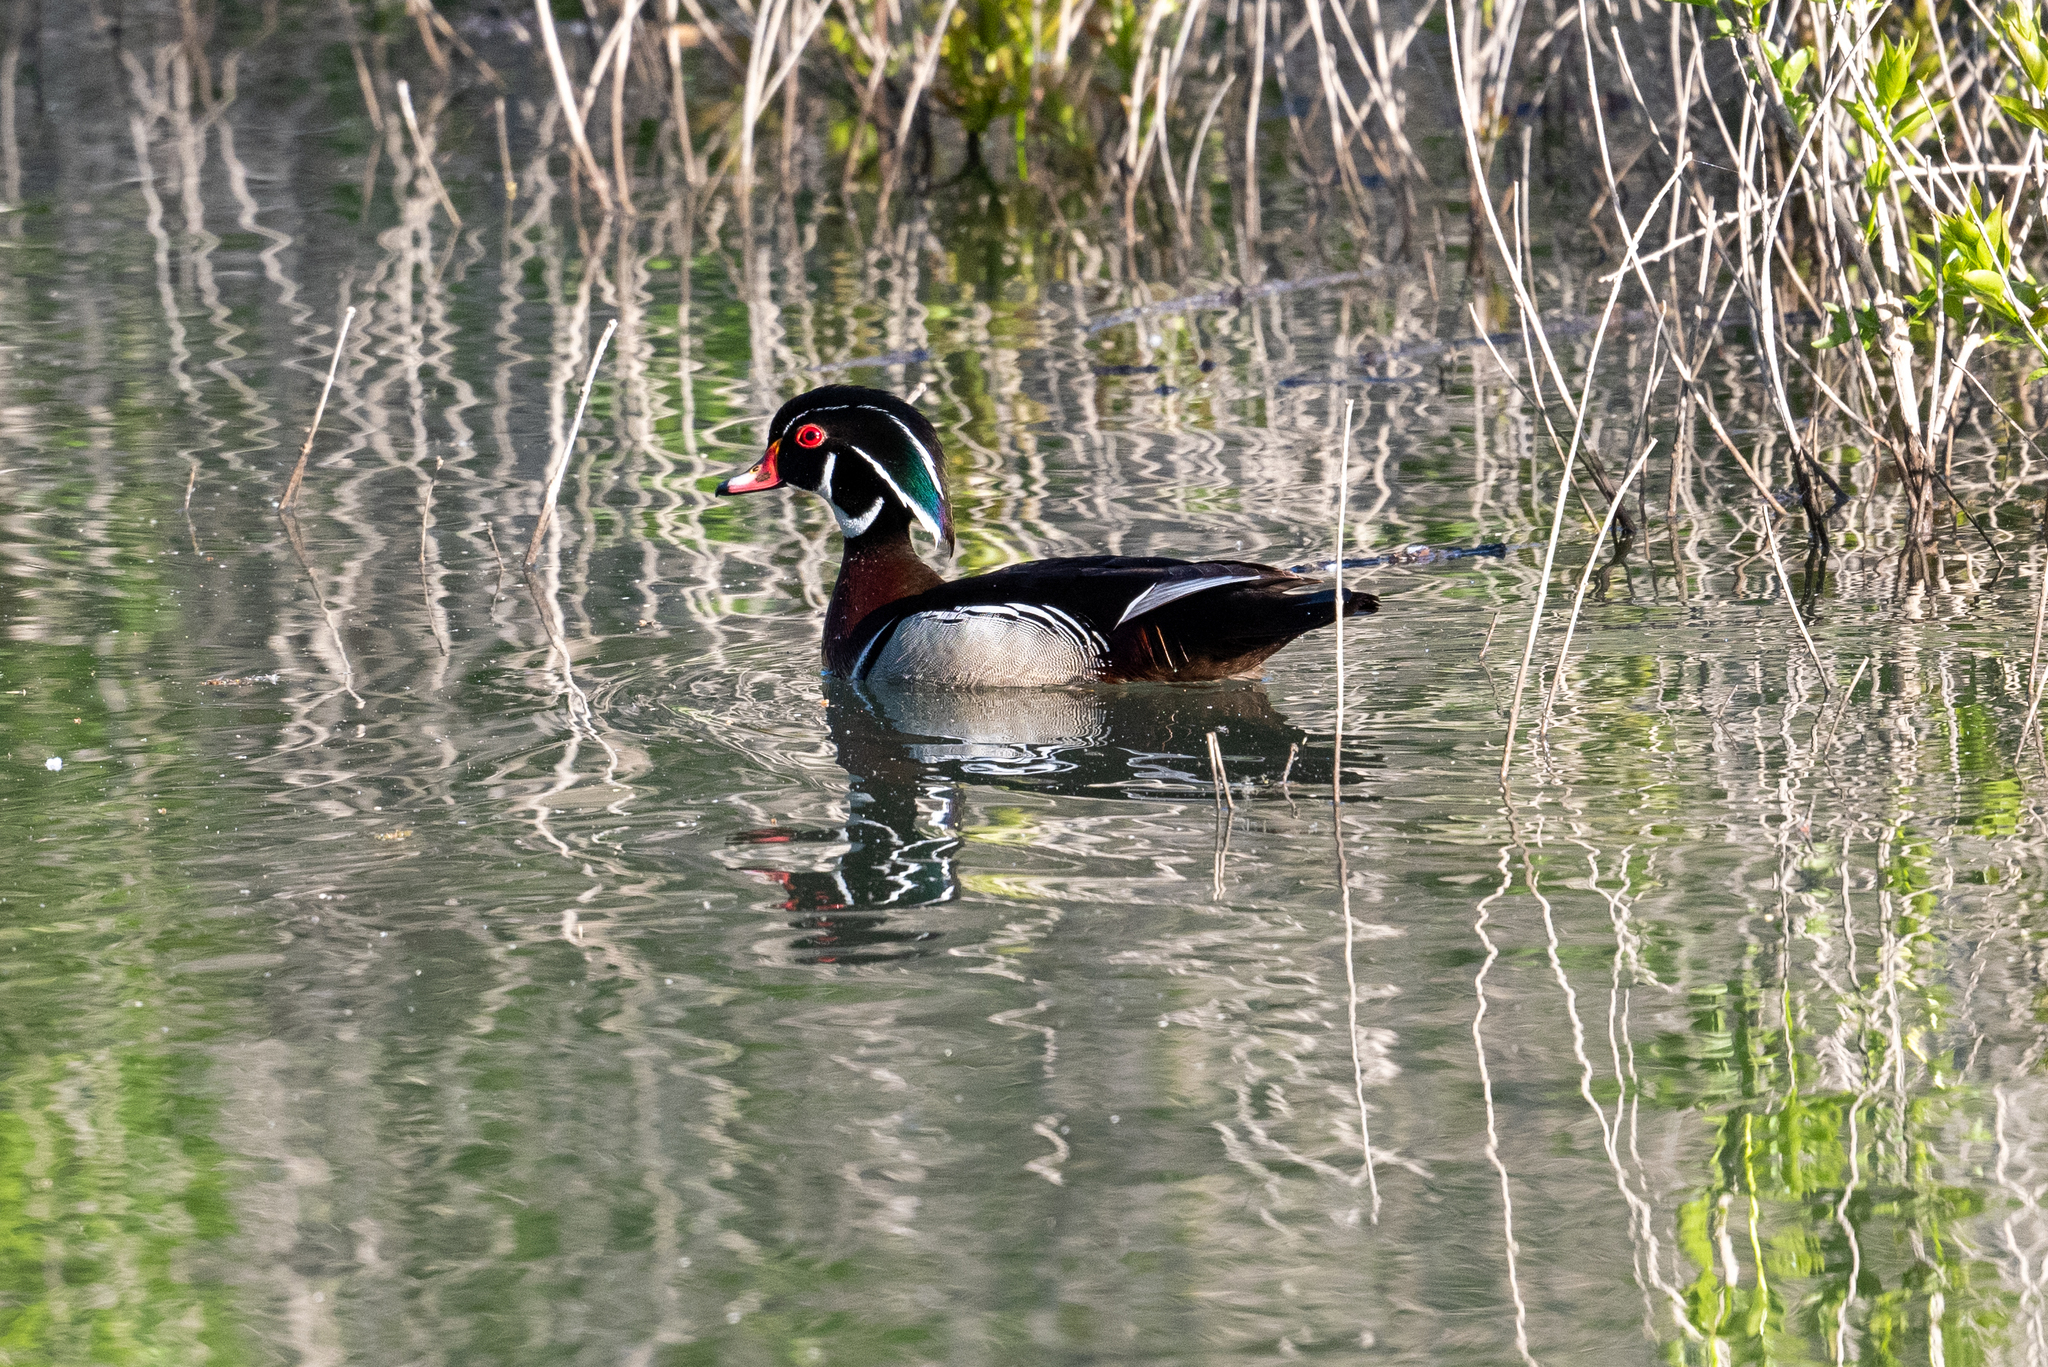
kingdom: Animalia
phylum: Chordata
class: Aves
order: Anseriformes
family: Anatidae
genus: Aix
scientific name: Aix sponsa
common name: Wood duck
